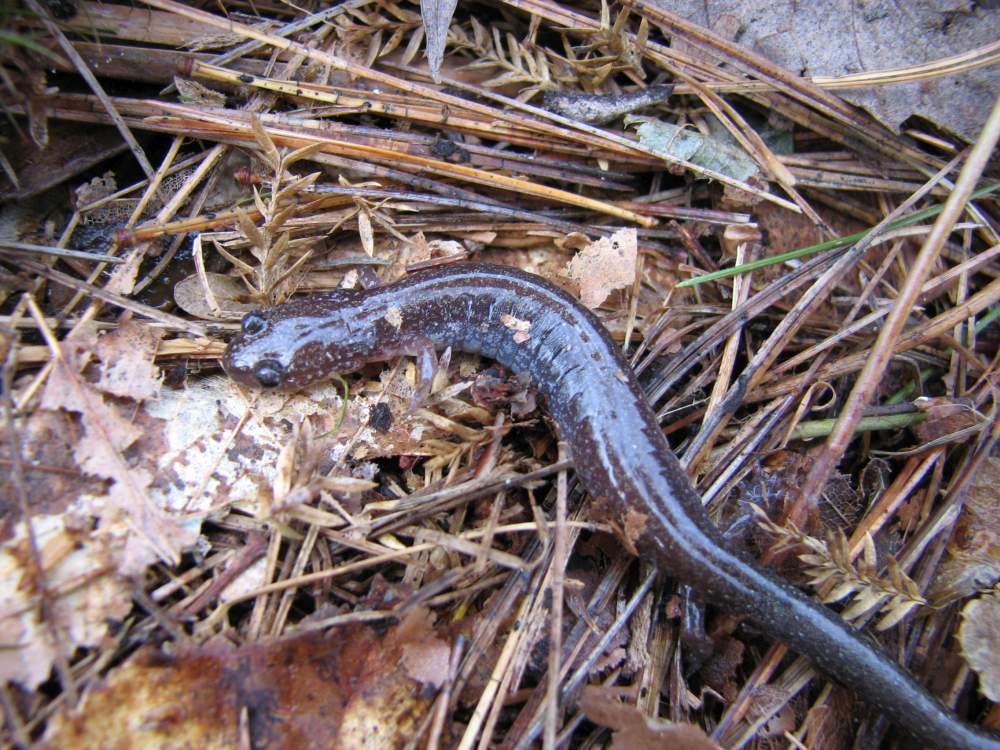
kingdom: Animalia
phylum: Chordata
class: Amphibia
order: Caudata
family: Plethodontidae
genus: Plethodon
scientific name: Plethodon cinereus
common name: Redback salamander
